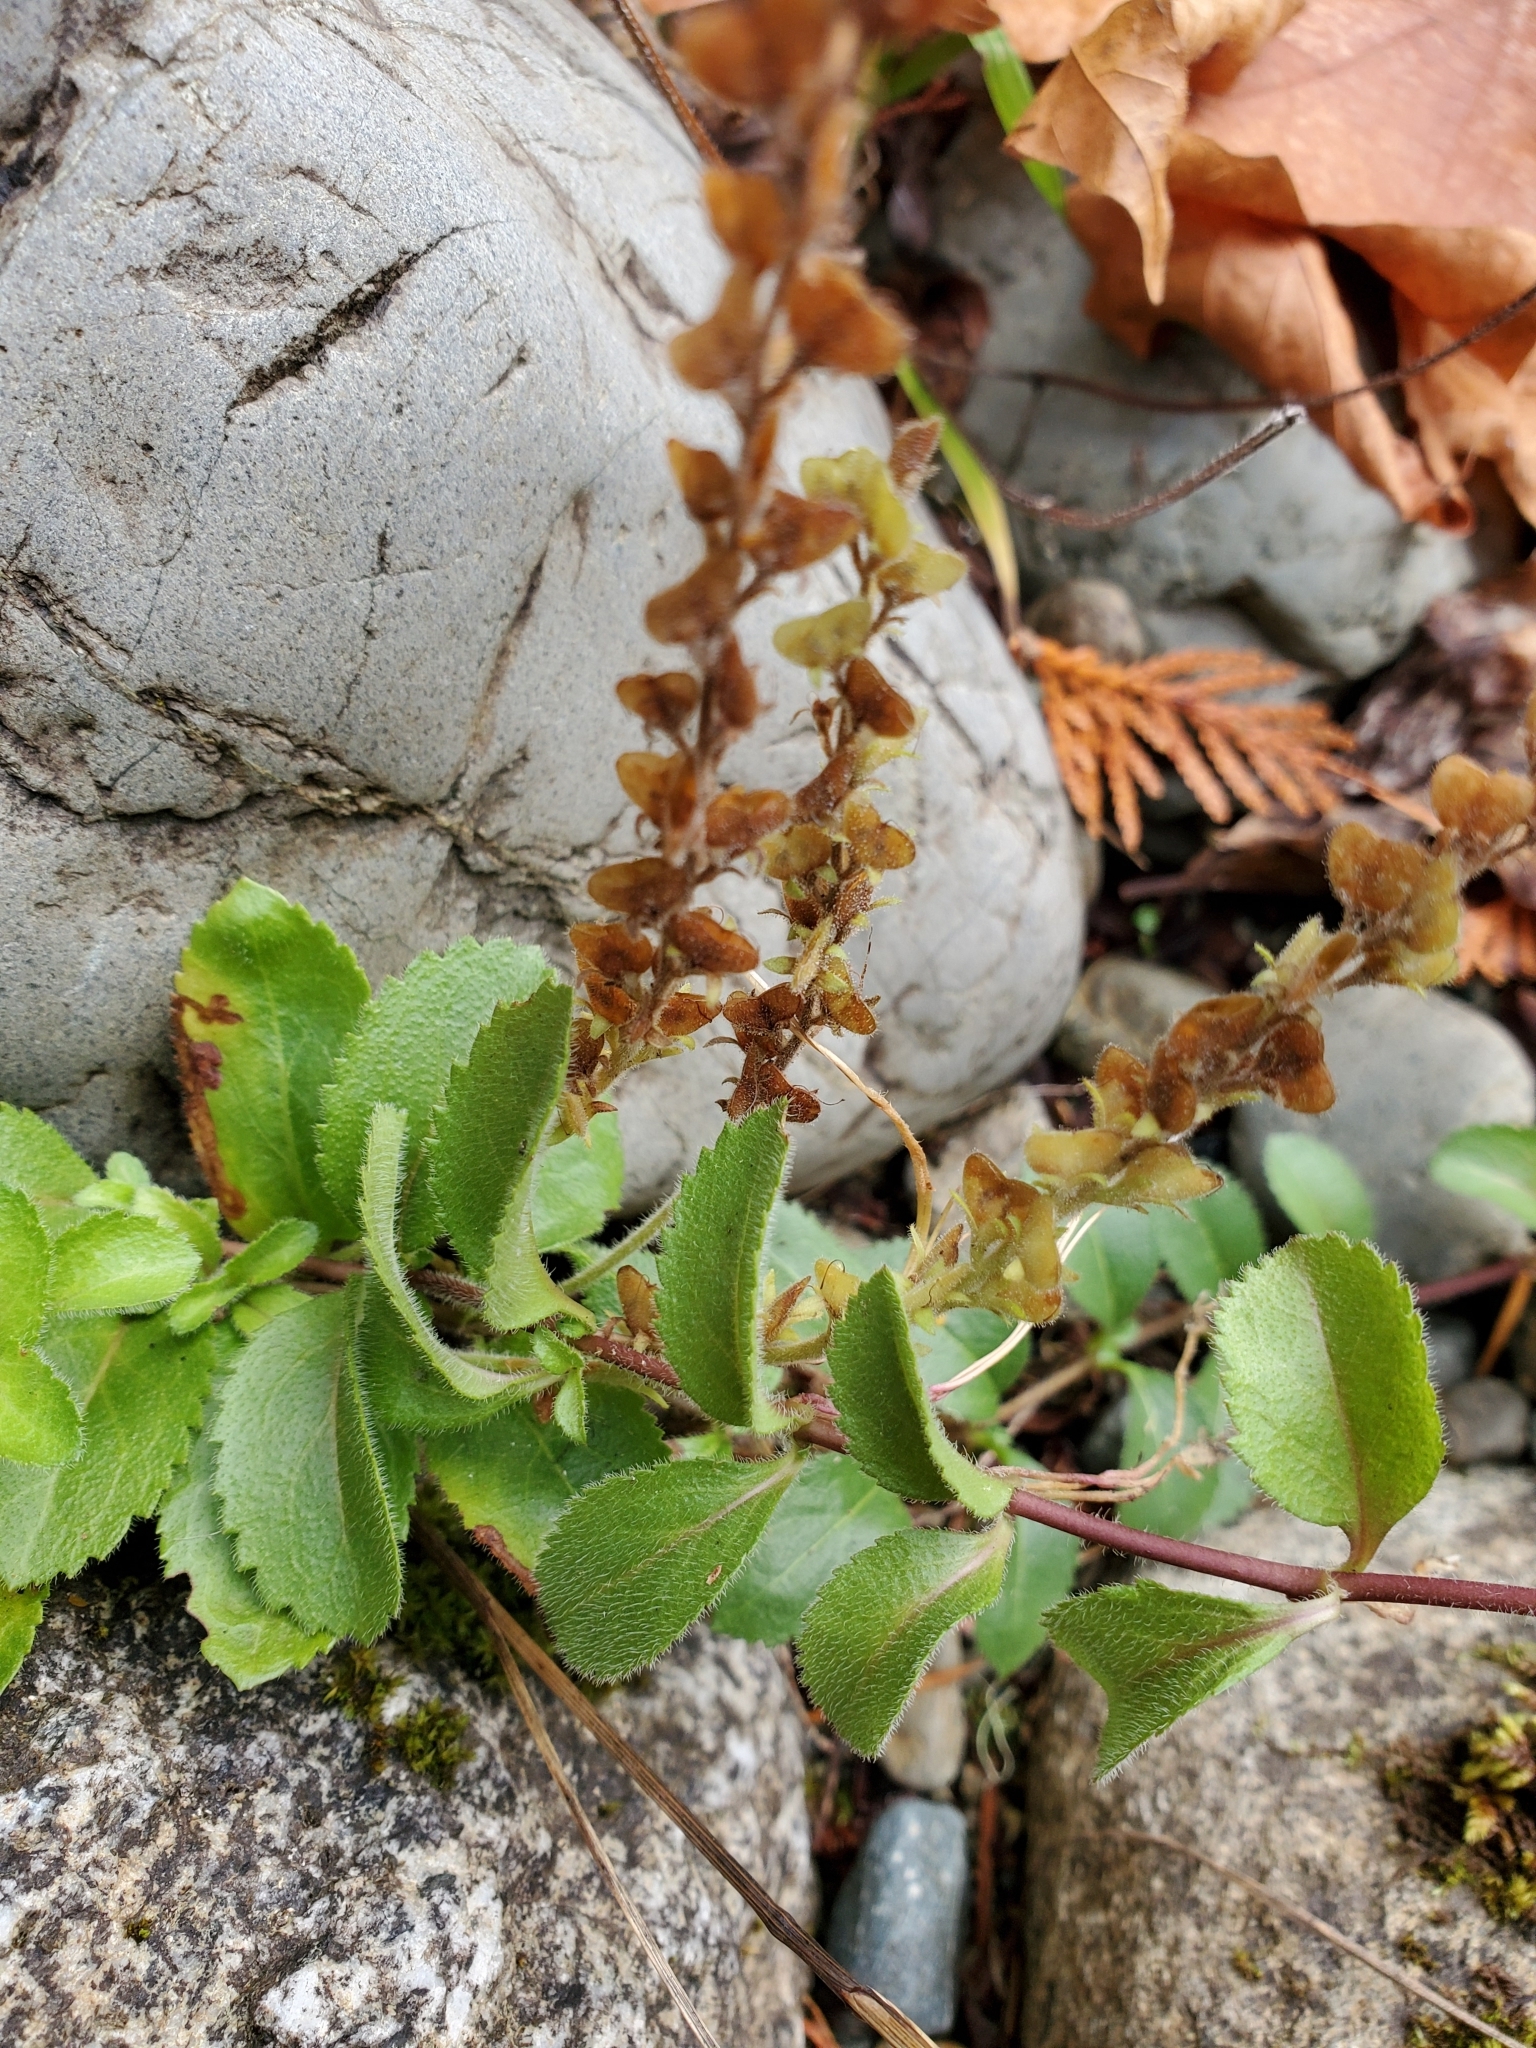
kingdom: Plantae
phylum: Tracheophyta
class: Magnoliopsida
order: Lamiales
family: Plantaginaceae
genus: Veronica
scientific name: Veronica officinalis
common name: Common speedwell
